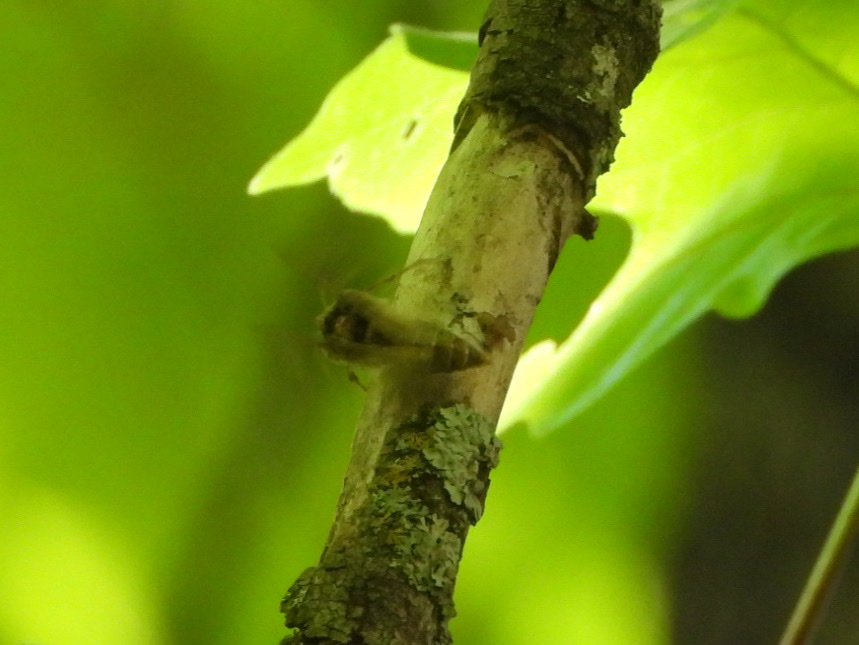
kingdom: Animalia
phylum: Arthropoda
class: Insecta
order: Lepidoptera
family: Noctuidae
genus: Autographa
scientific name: Autographa californica
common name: Alfalfa looper
